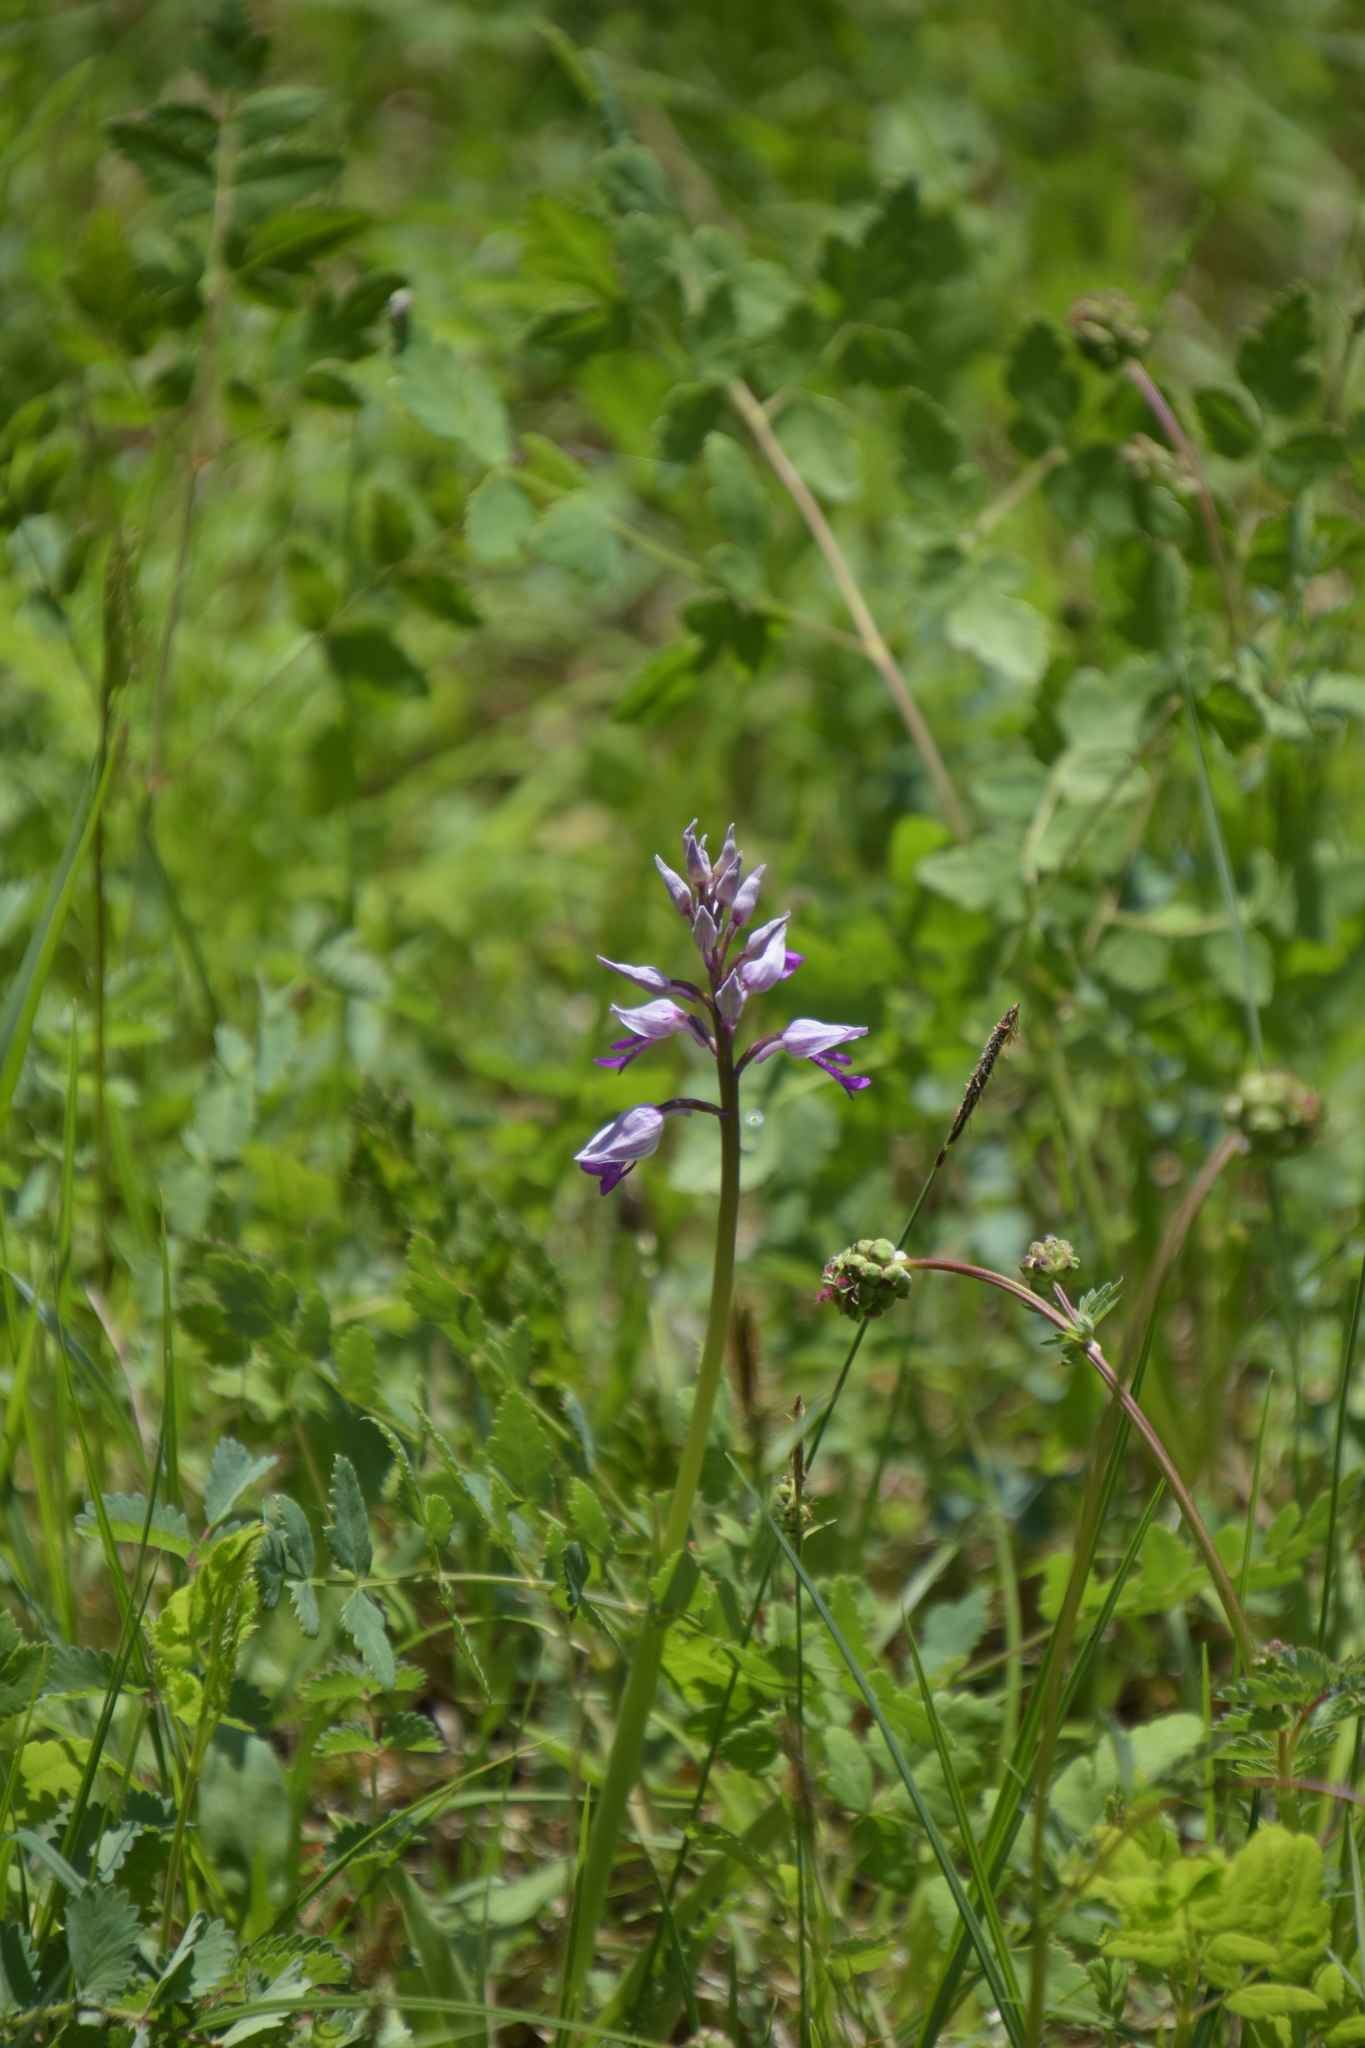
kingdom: Plantae
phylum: Tracheophyta
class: Liliopsida
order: Asparagales
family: Orchidaceae
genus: Orchis
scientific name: Orchis militaris
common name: Military orchid
